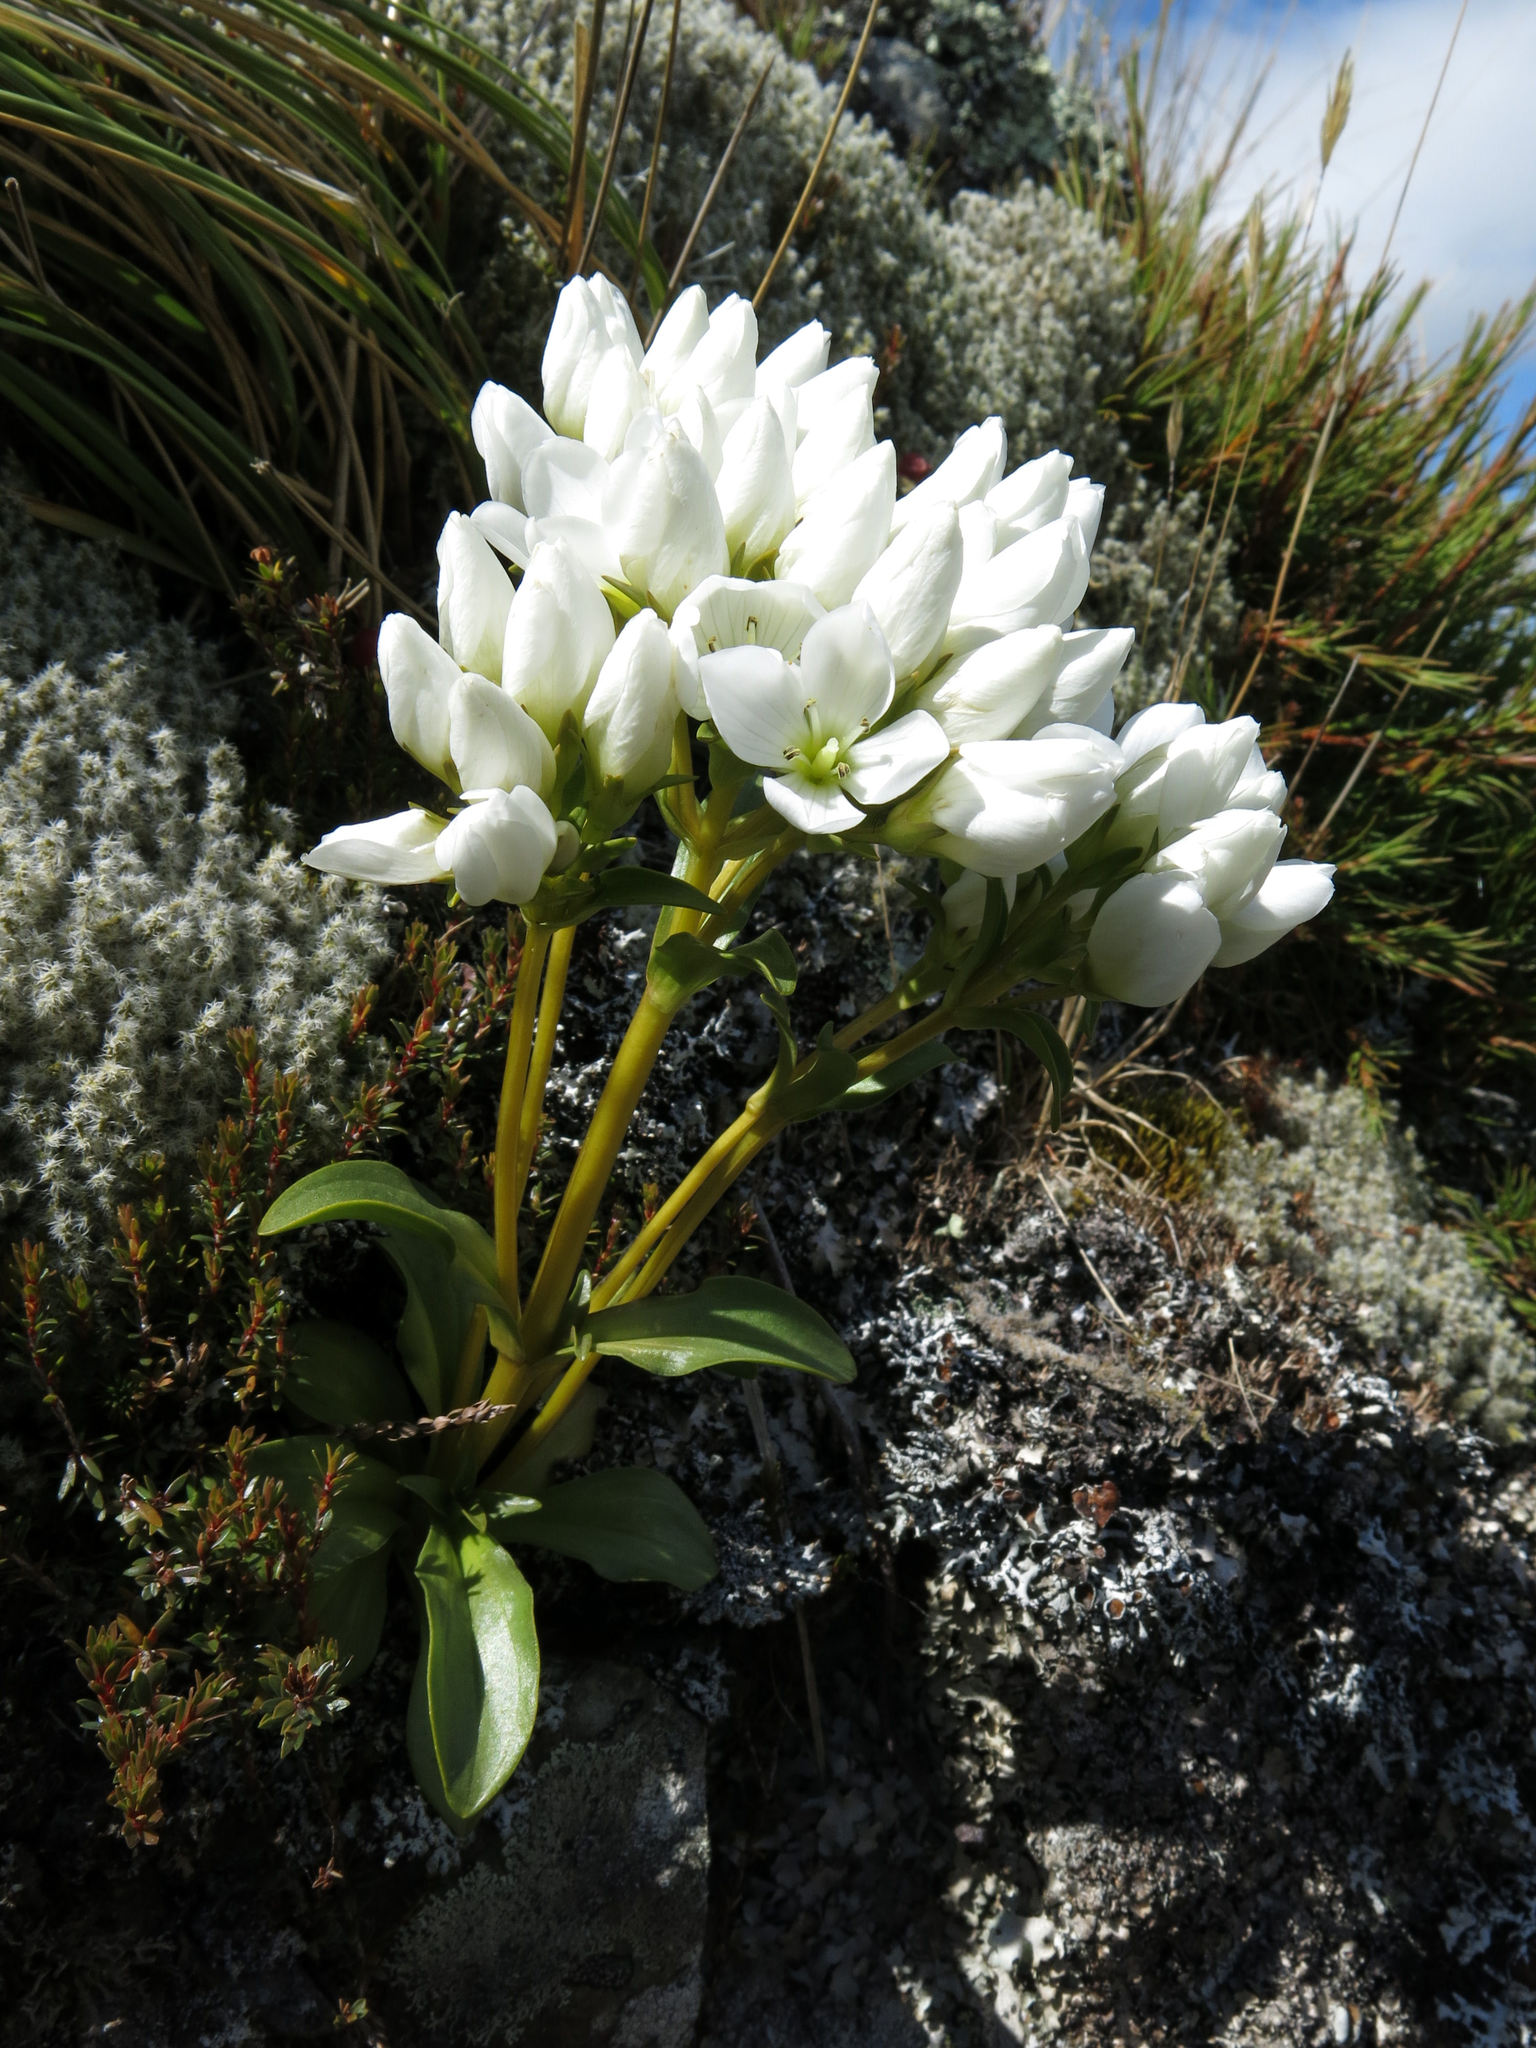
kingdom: Plantae
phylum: Tracheophyta
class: Magnoliopsida
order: Gentianales
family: Gentianaceae
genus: Gentianella
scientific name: Gentianella corymbifera
